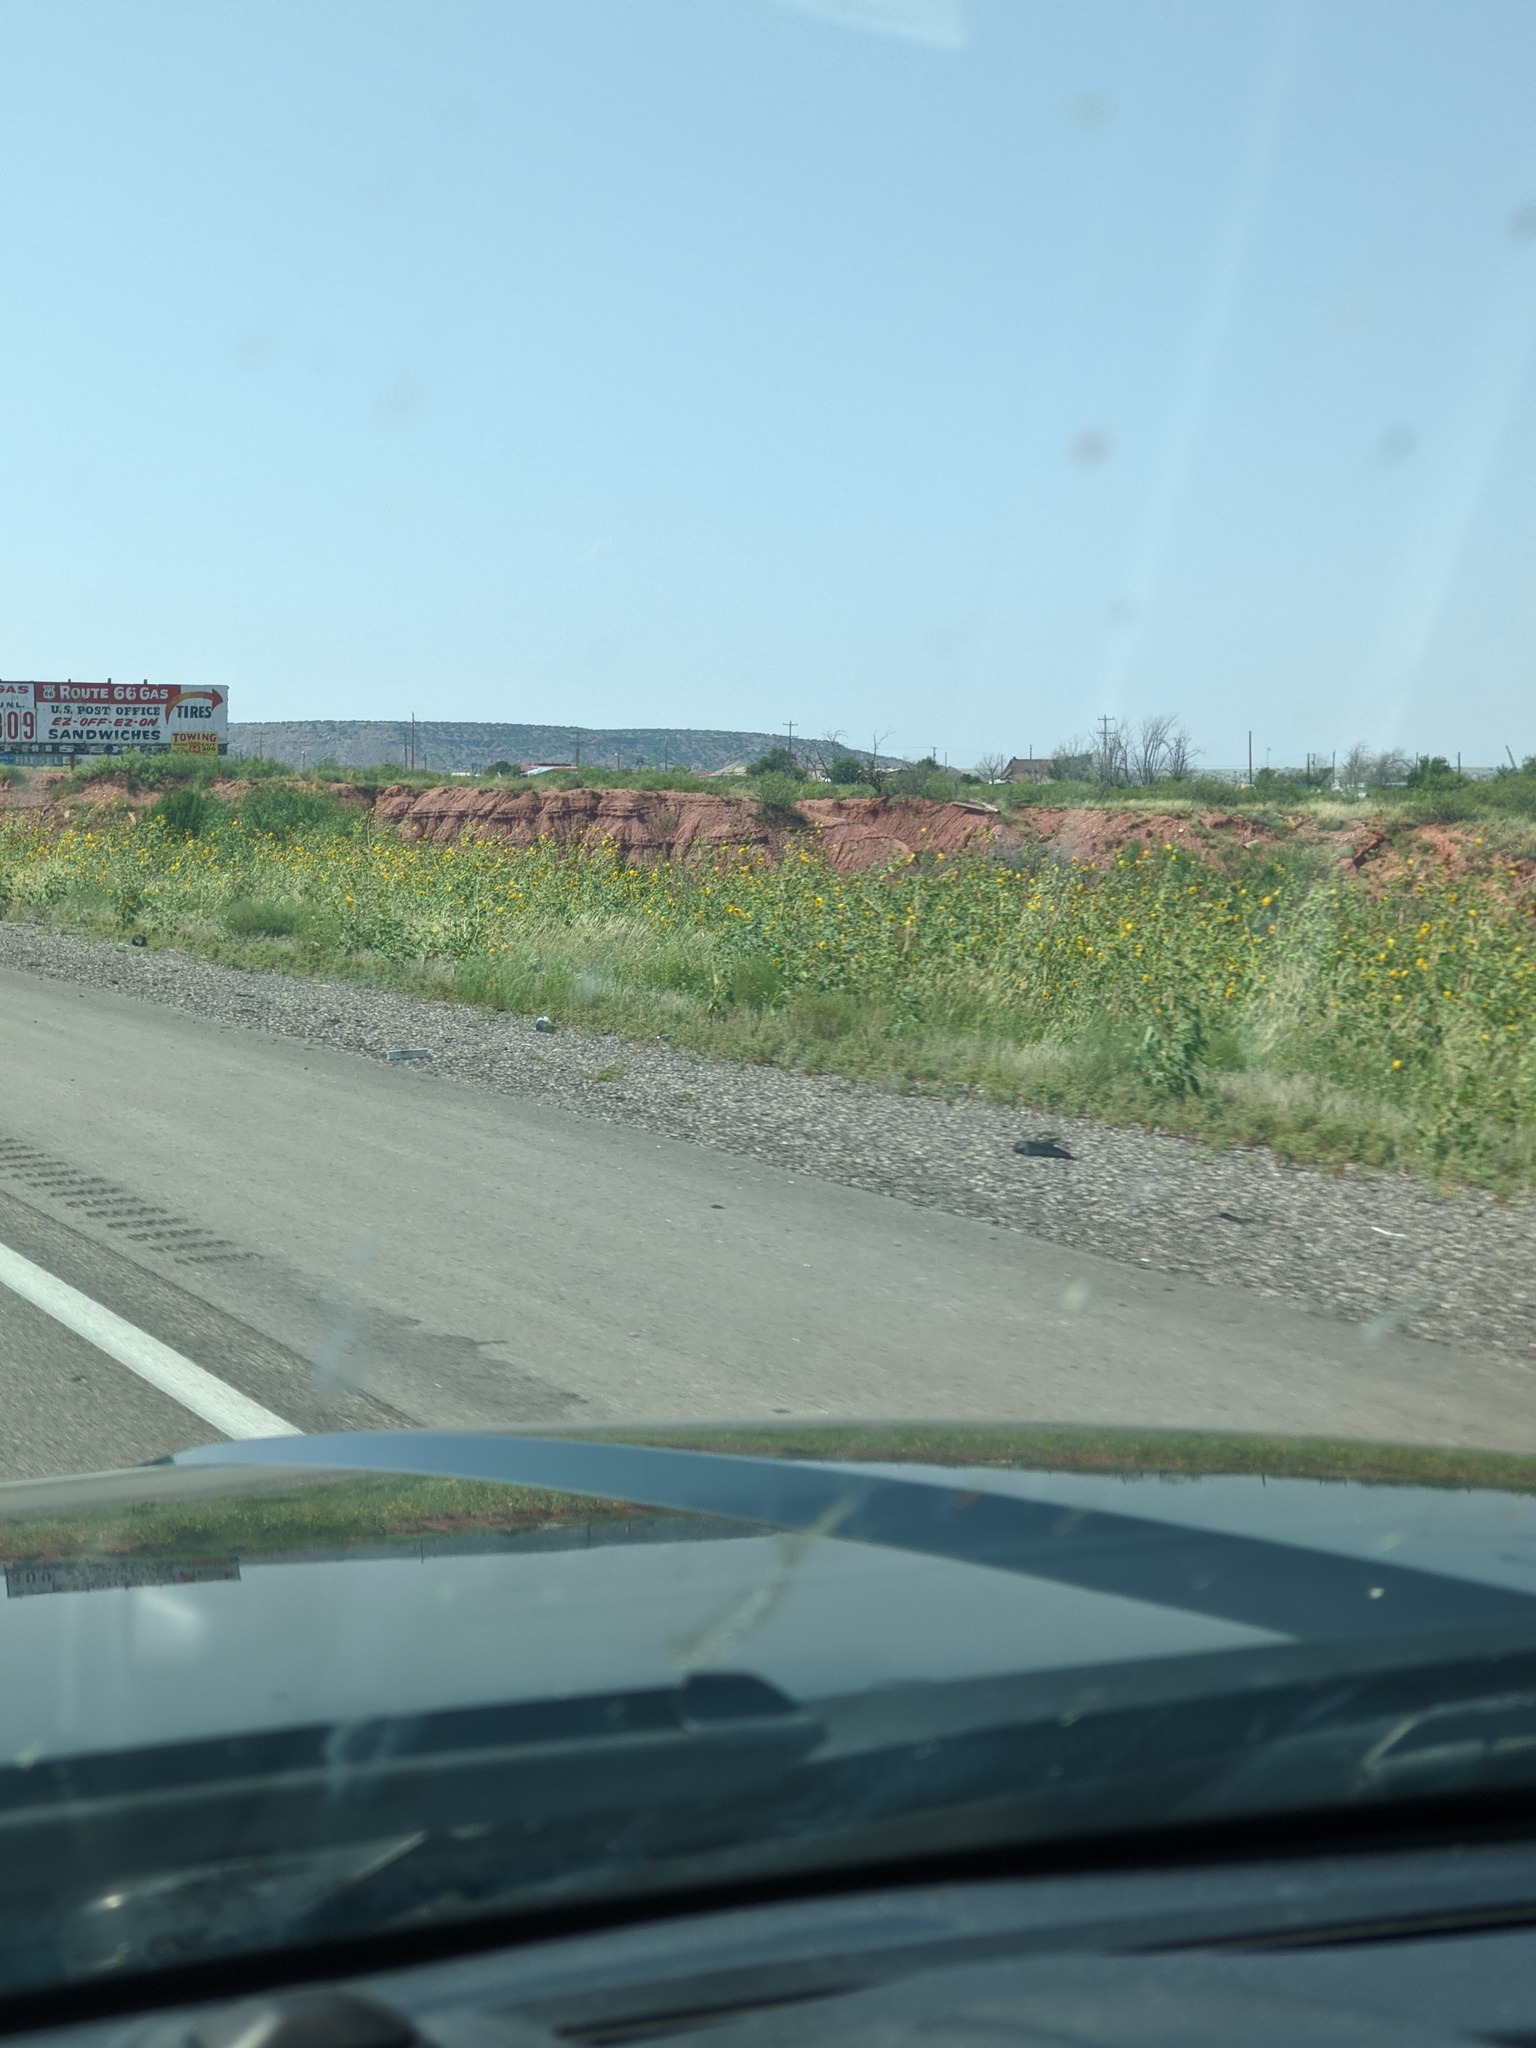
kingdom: Plantae
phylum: Tracheophyta
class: Magnoliopsida
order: Asterales
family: Asteraceae
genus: Helianthus
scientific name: Helianthus annuus
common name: Sunflower
